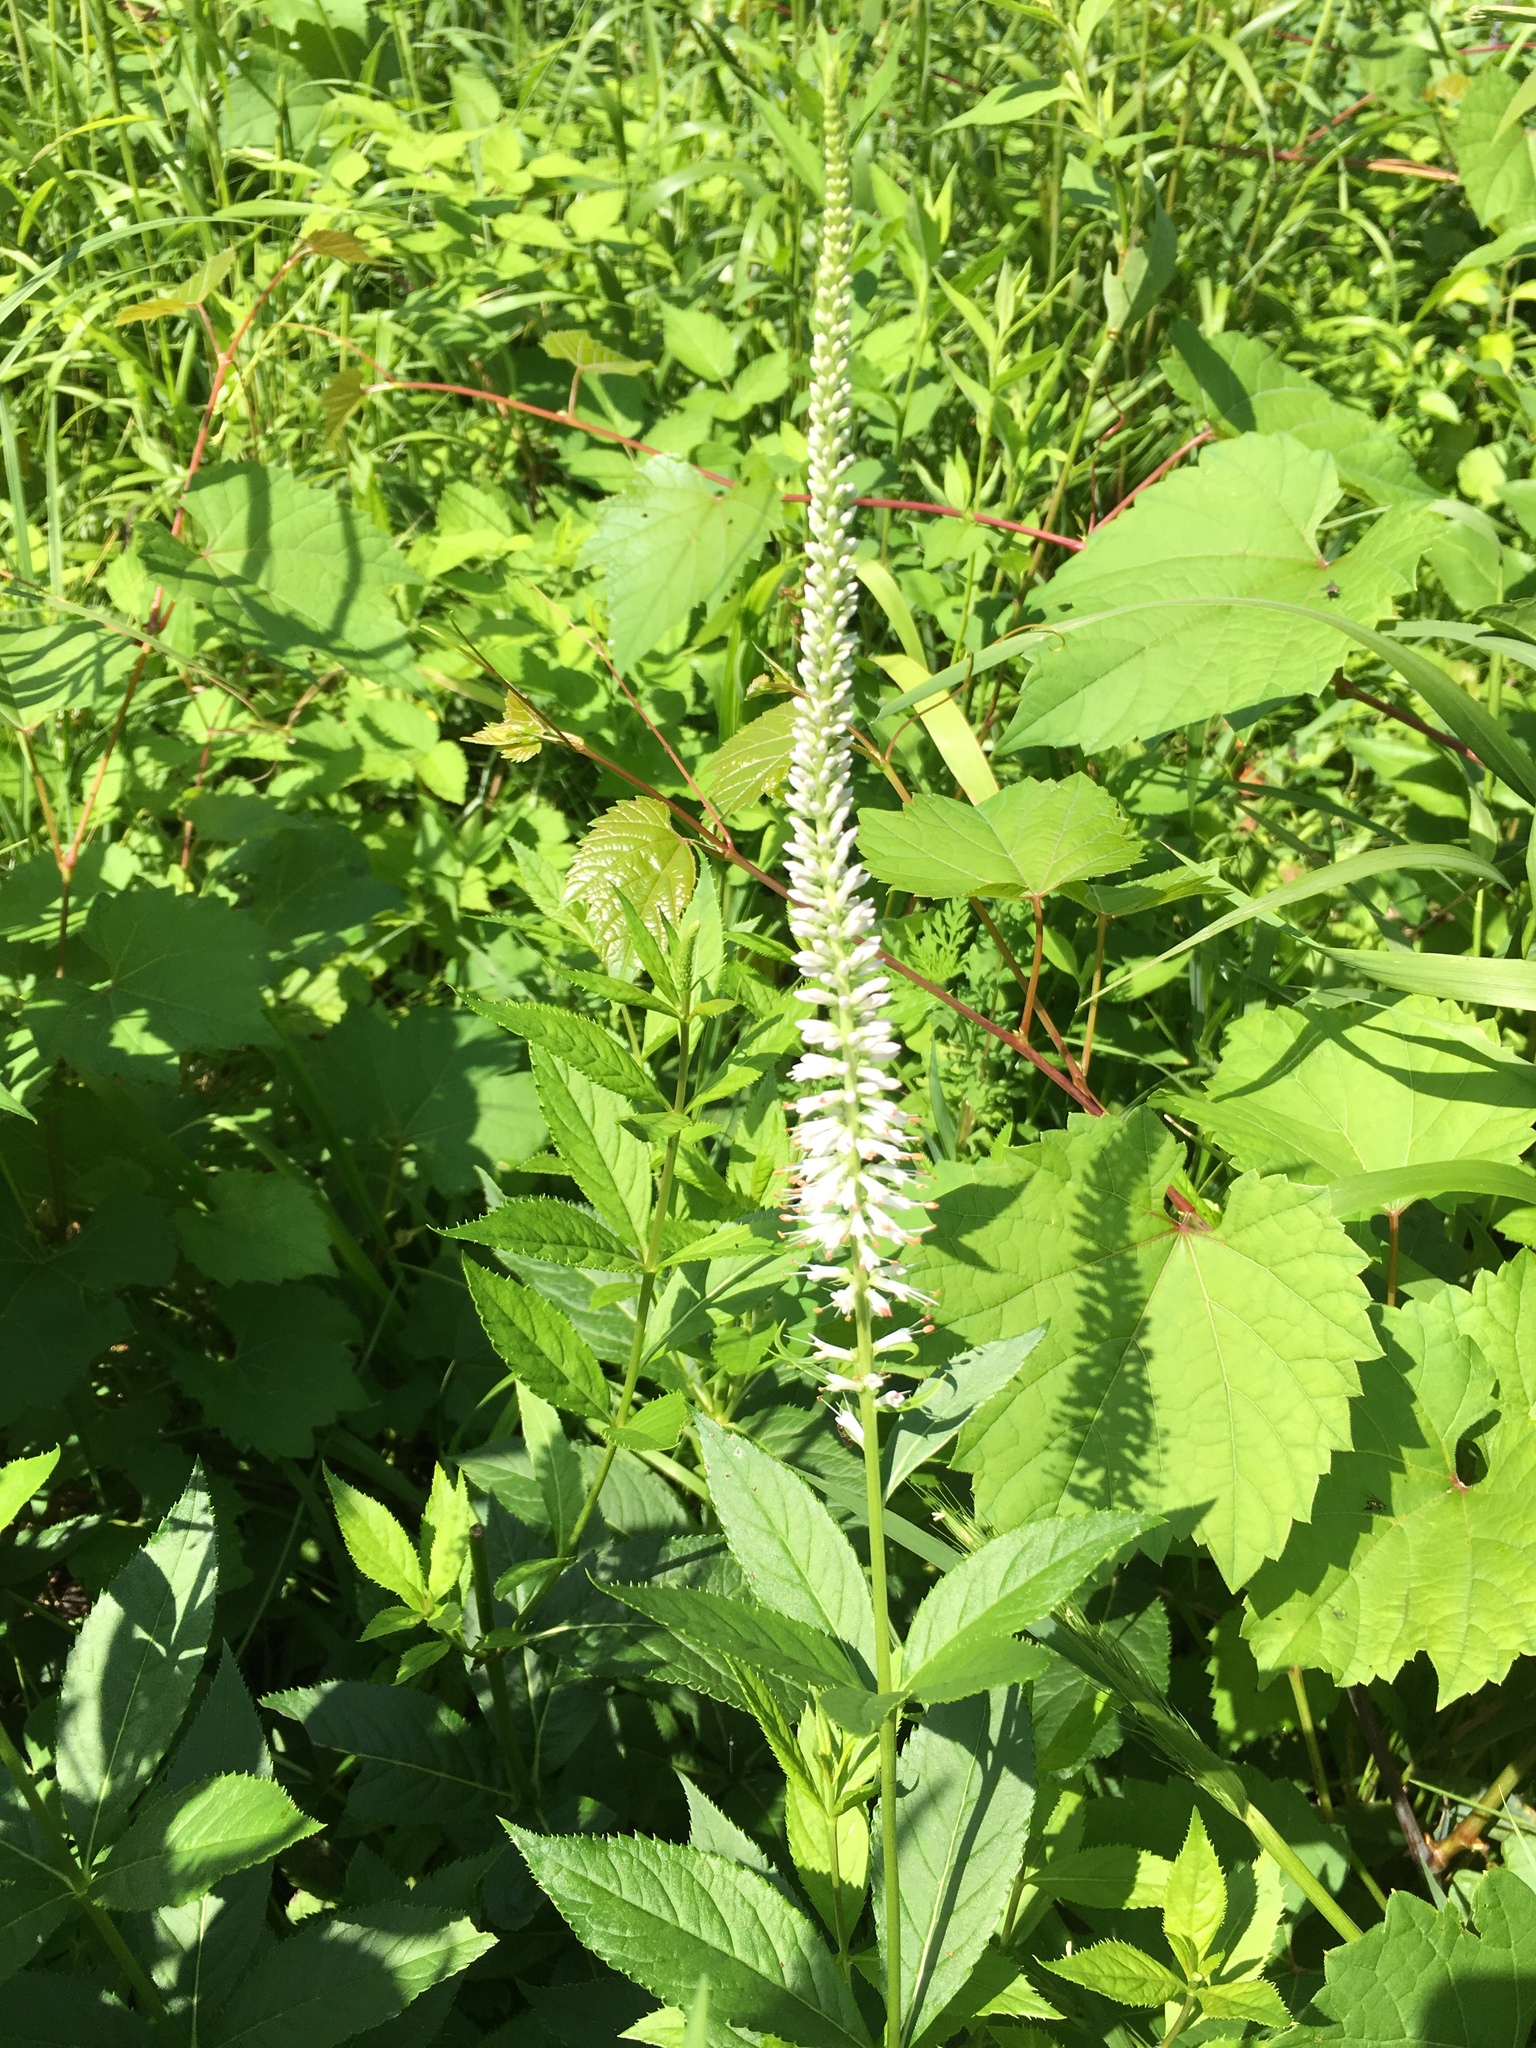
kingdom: Plantae
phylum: Tracheophyta
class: Magnoliopsida
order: Lamiales
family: Plantaginaceae
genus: Veronicastrum
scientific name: Veronicastrum virginicum
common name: Blackroot
